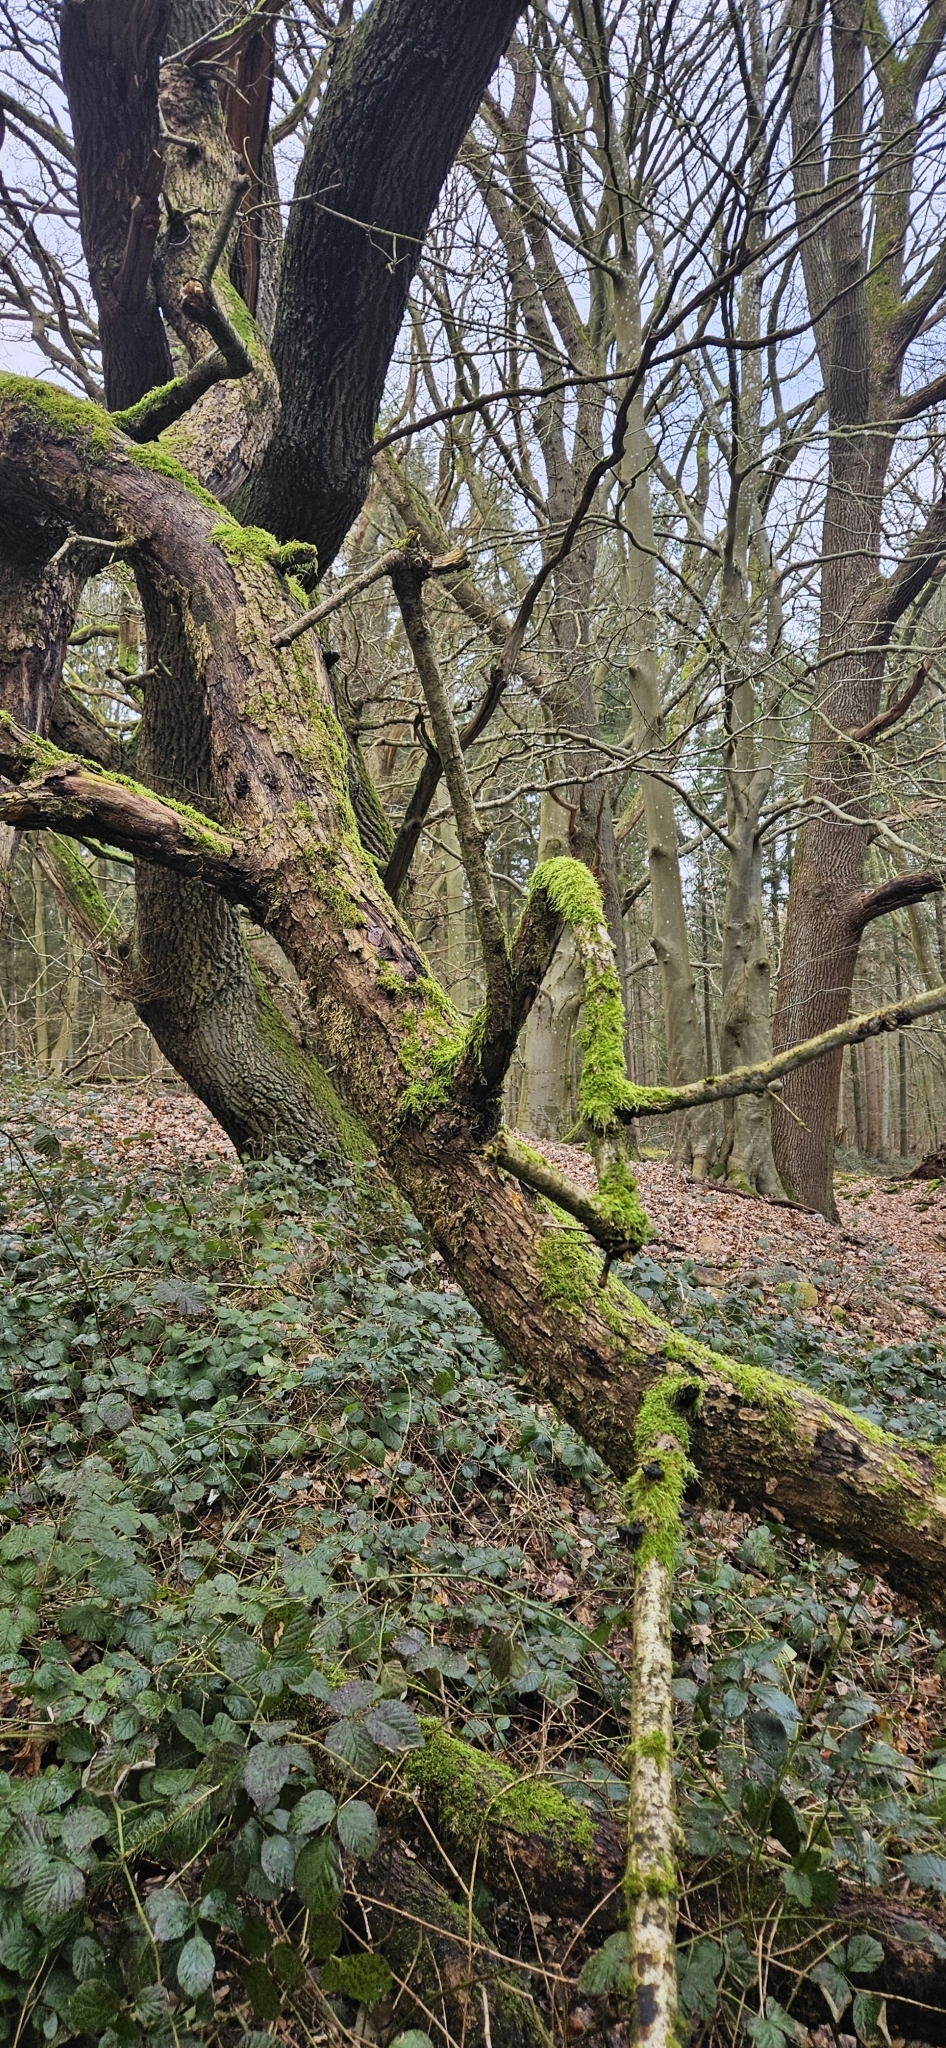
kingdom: Fungi
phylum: Basidiomycota
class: Agaricomycetes
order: Auriculariales
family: Auriculariaceae
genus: Exidia
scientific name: Exidia glandulosa
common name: Witches' butter
